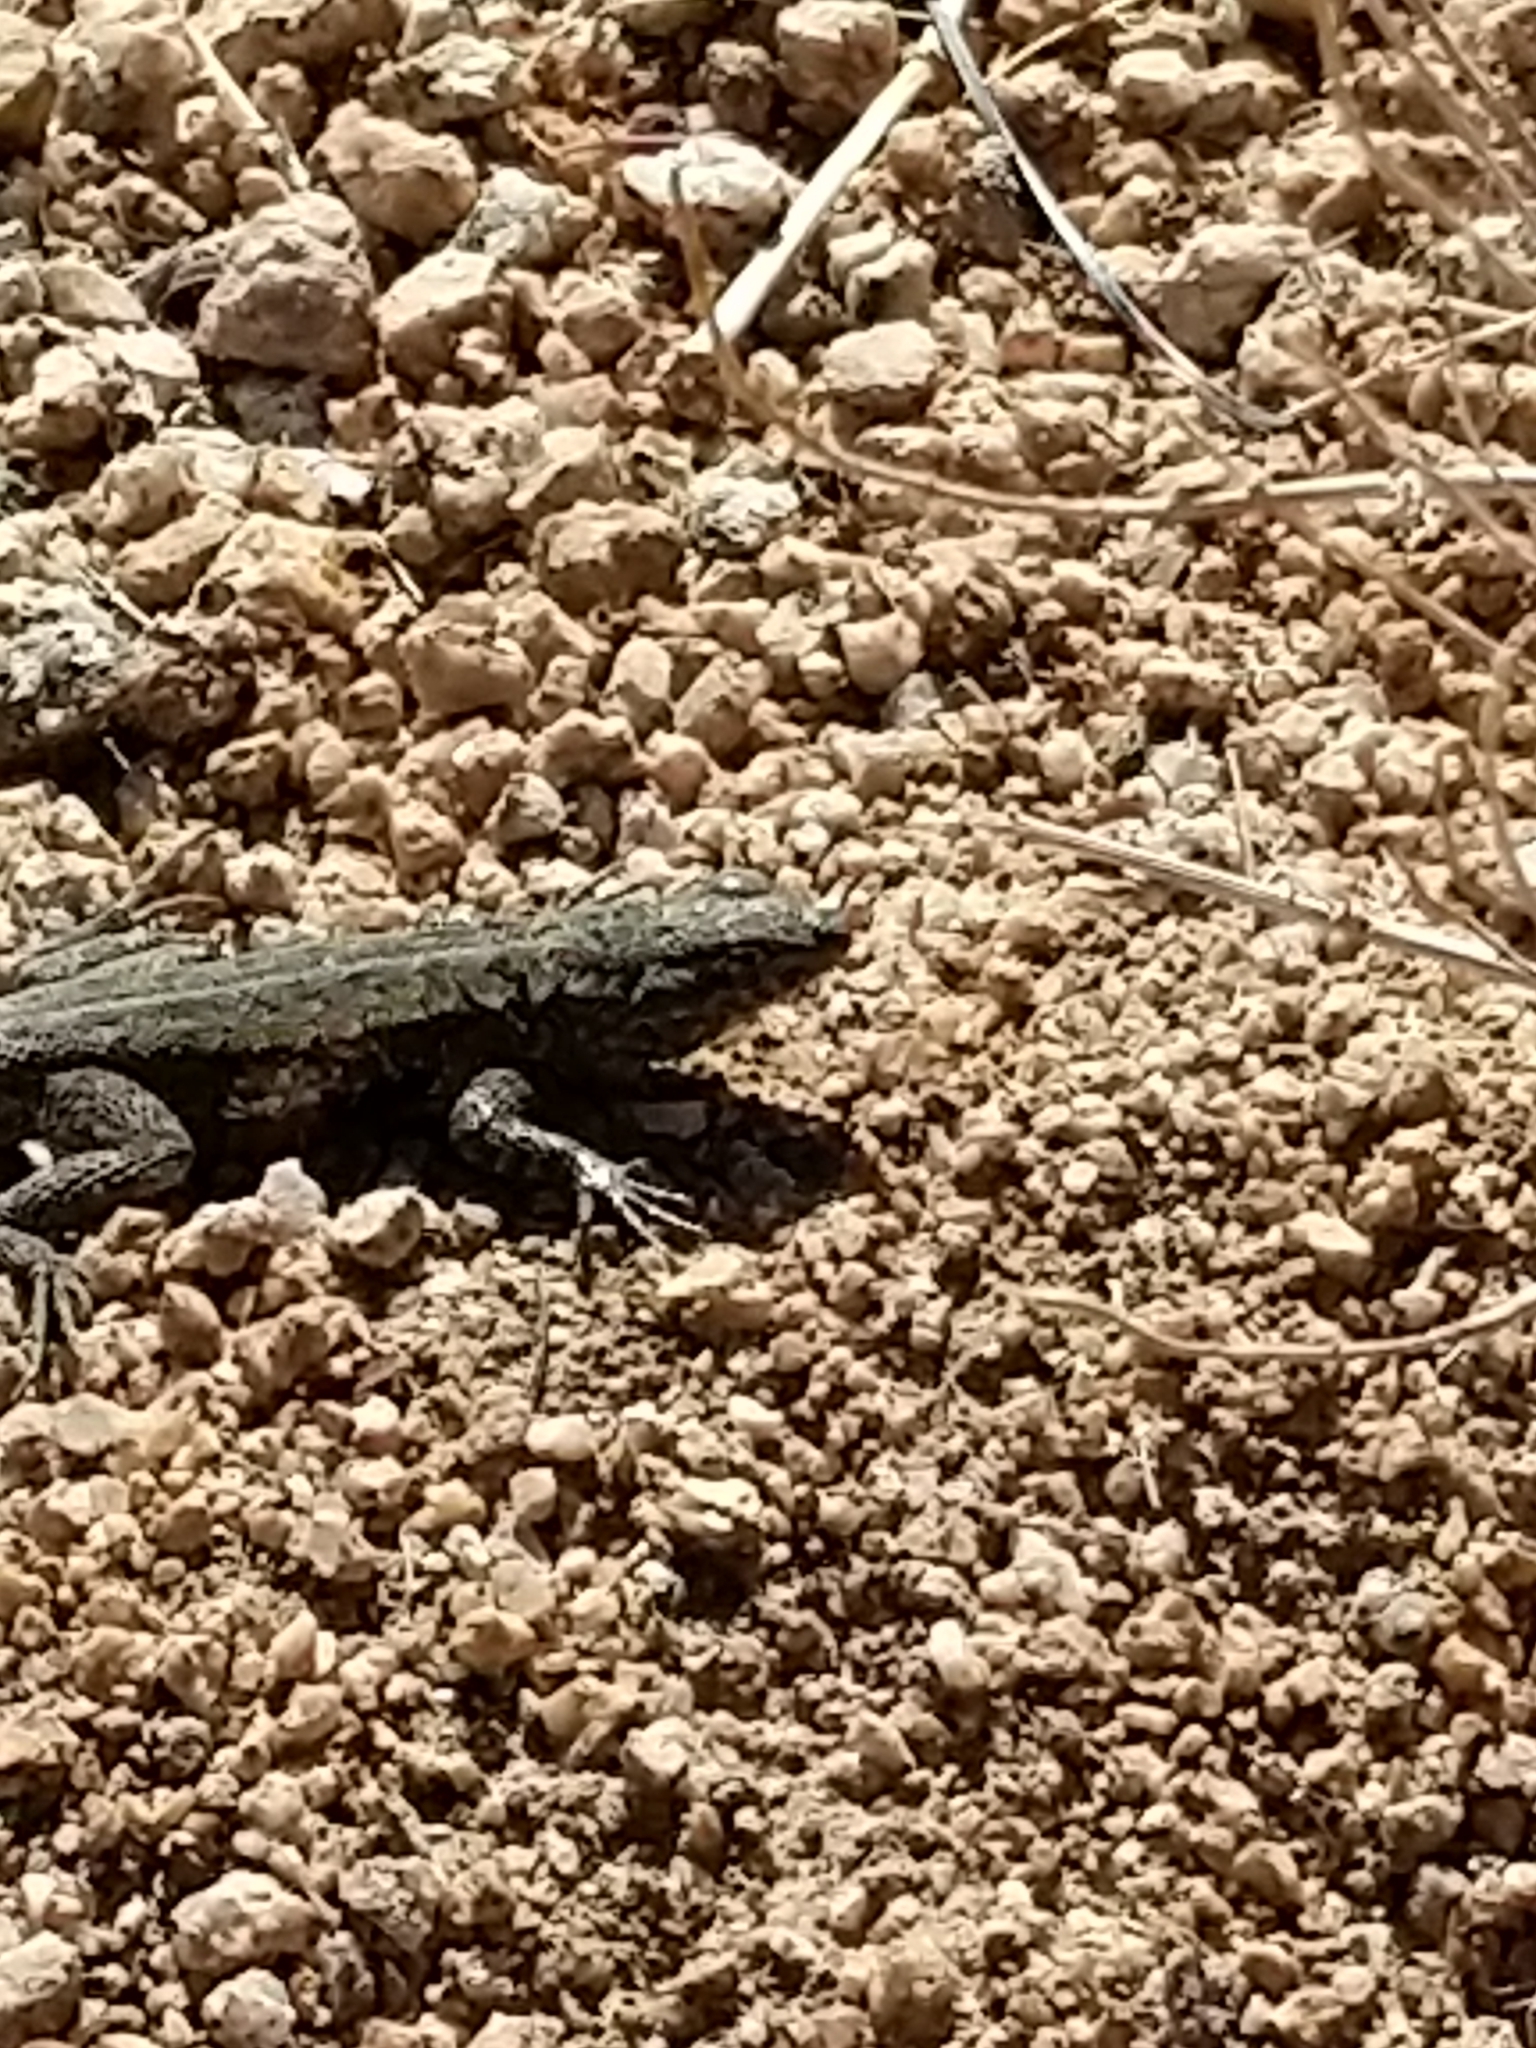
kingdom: Animalia
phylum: Chordata
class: Squamata
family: Phrynosomatidae
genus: Uta
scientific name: Uta stansburiana
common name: Side-blotched lizard
